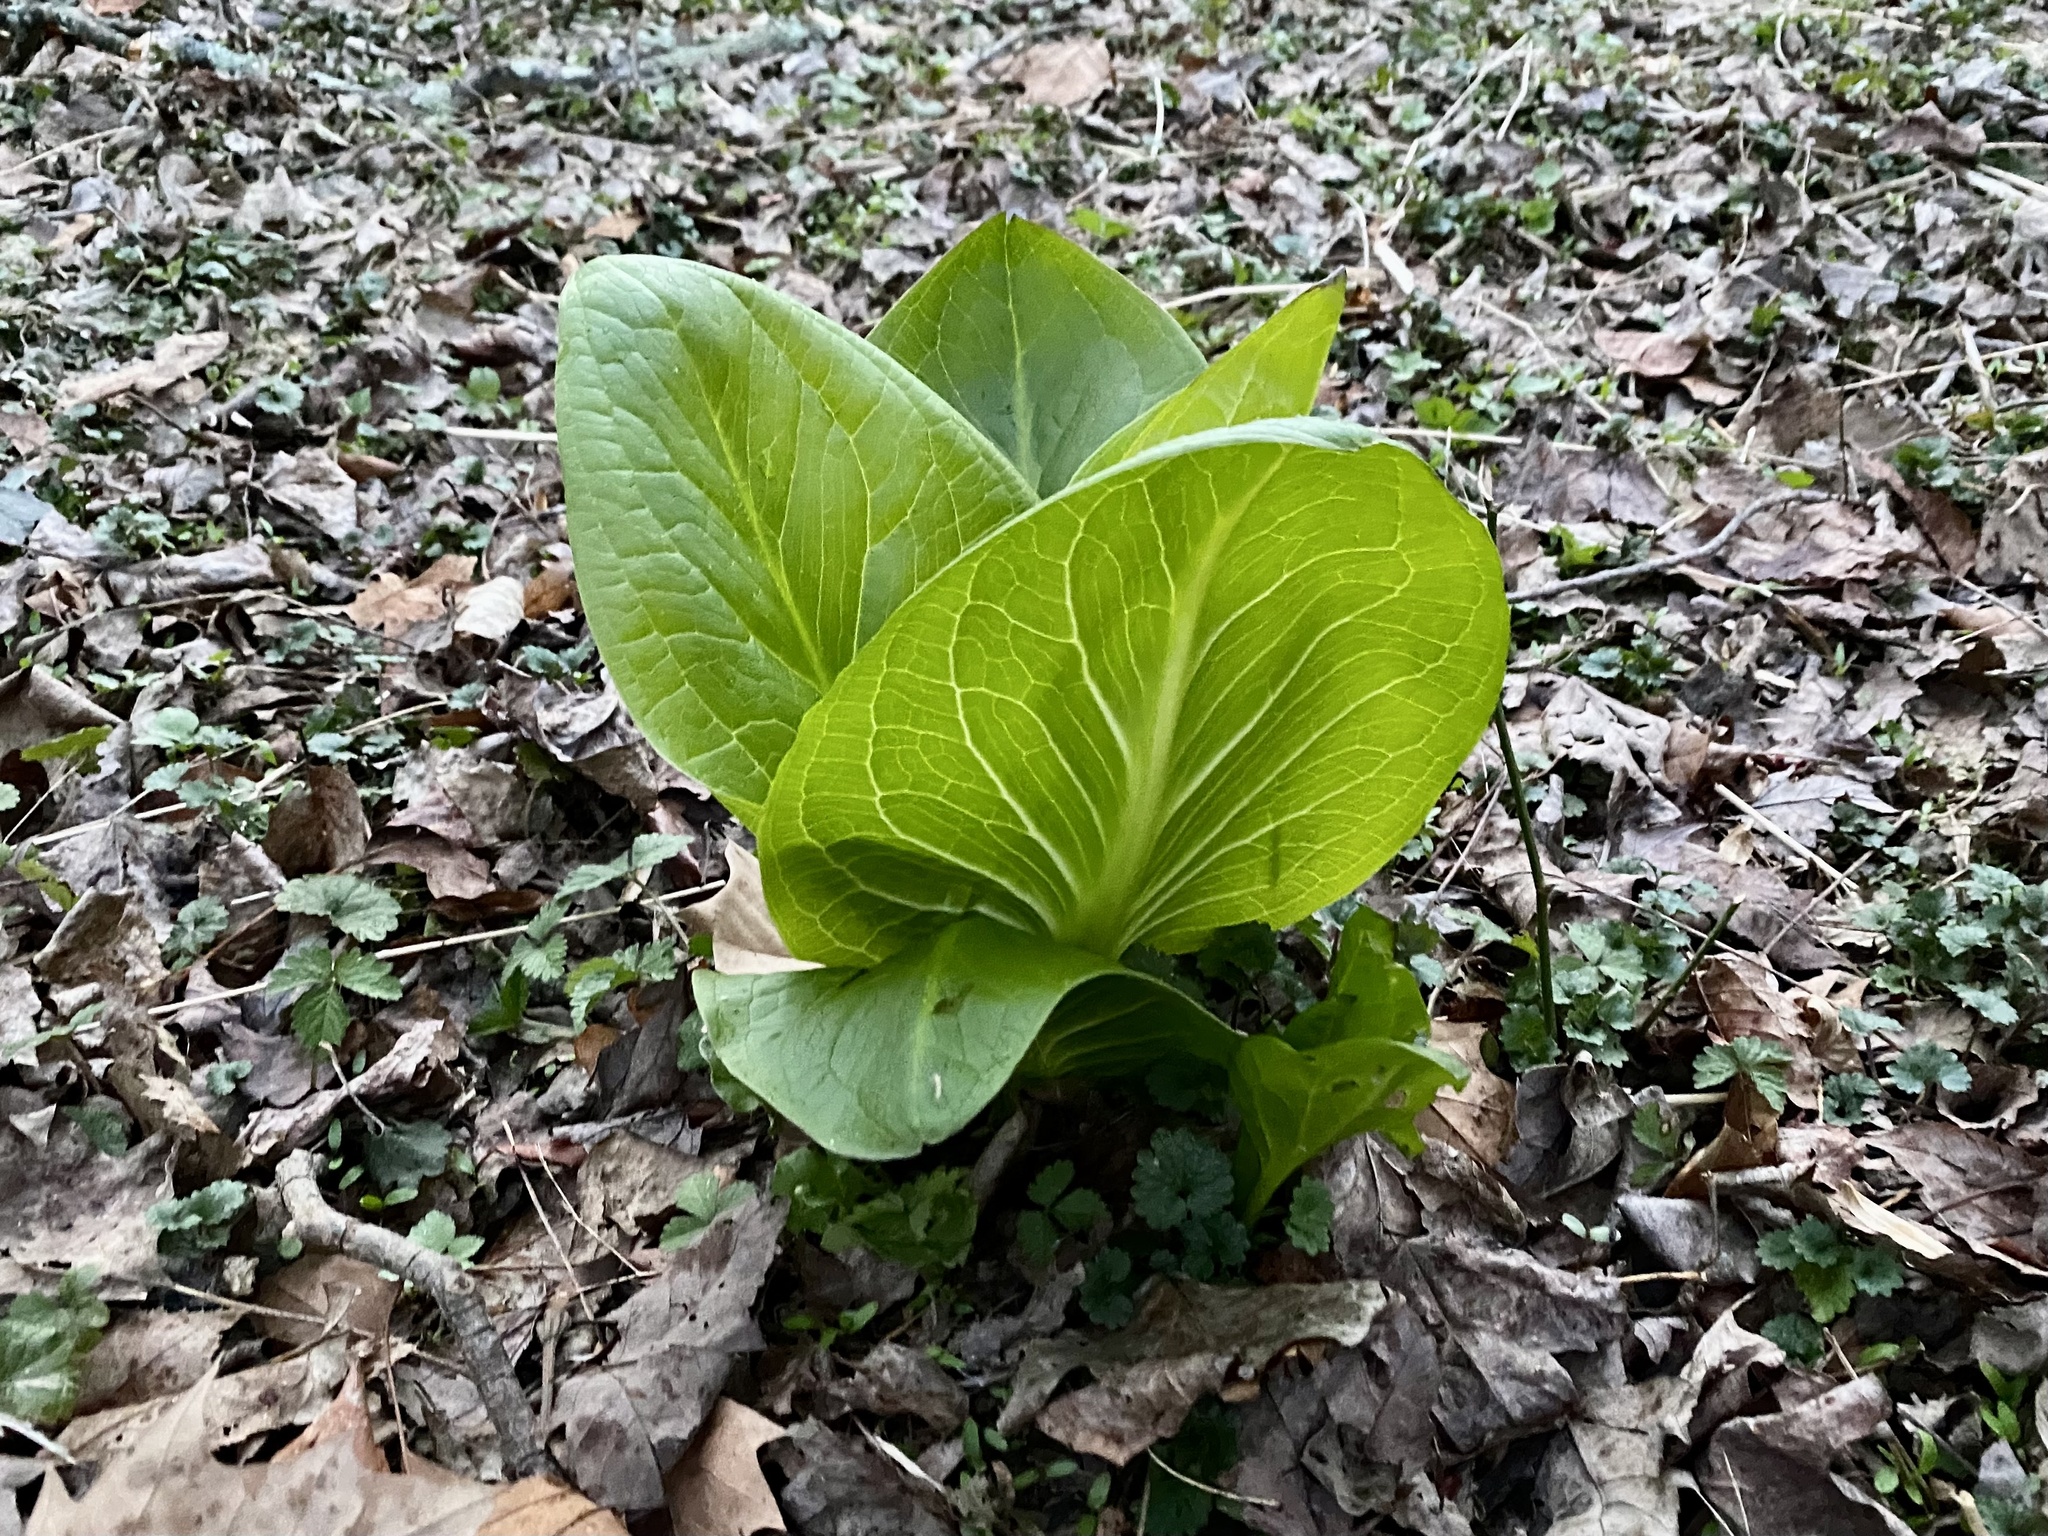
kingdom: Plantae
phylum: Tracheophyta
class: Liliopsida
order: Alismatales
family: Araceae
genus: Symplocarpus
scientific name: Symplocarpus foetidus
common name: Eastern skunk cabbage
